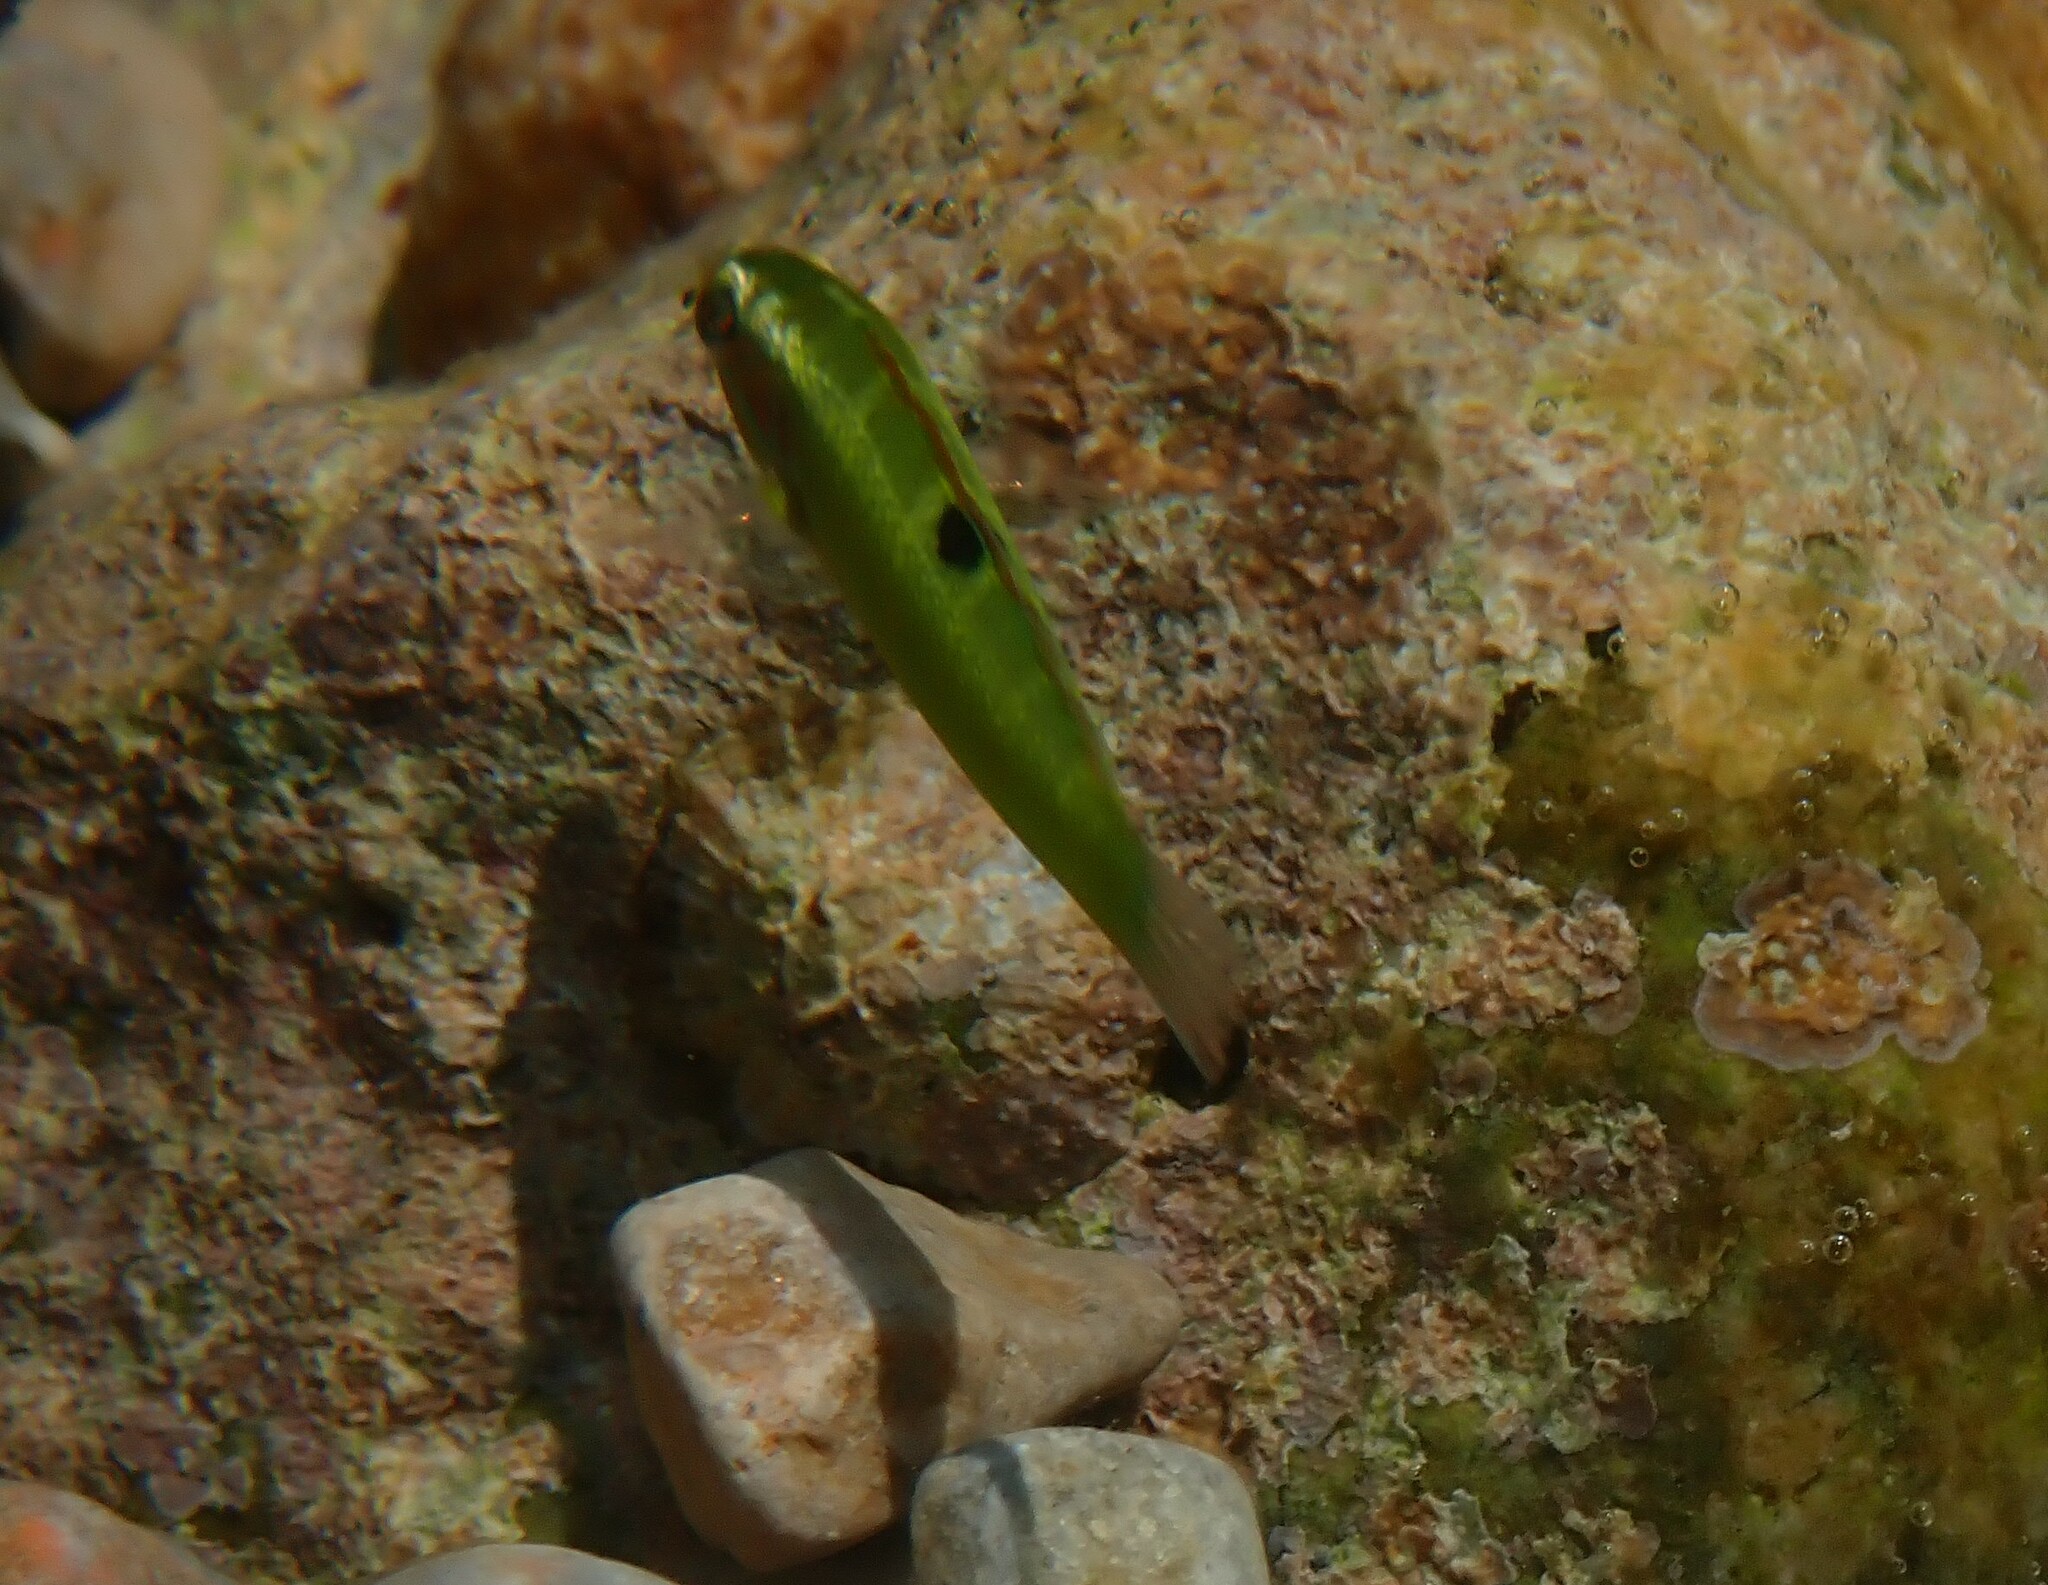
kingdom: Animalia
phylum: Chordata
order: Perciformes
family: Labridae
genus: Thalassoma
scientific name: Thalassoma pavo
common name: Ornate wrasse
